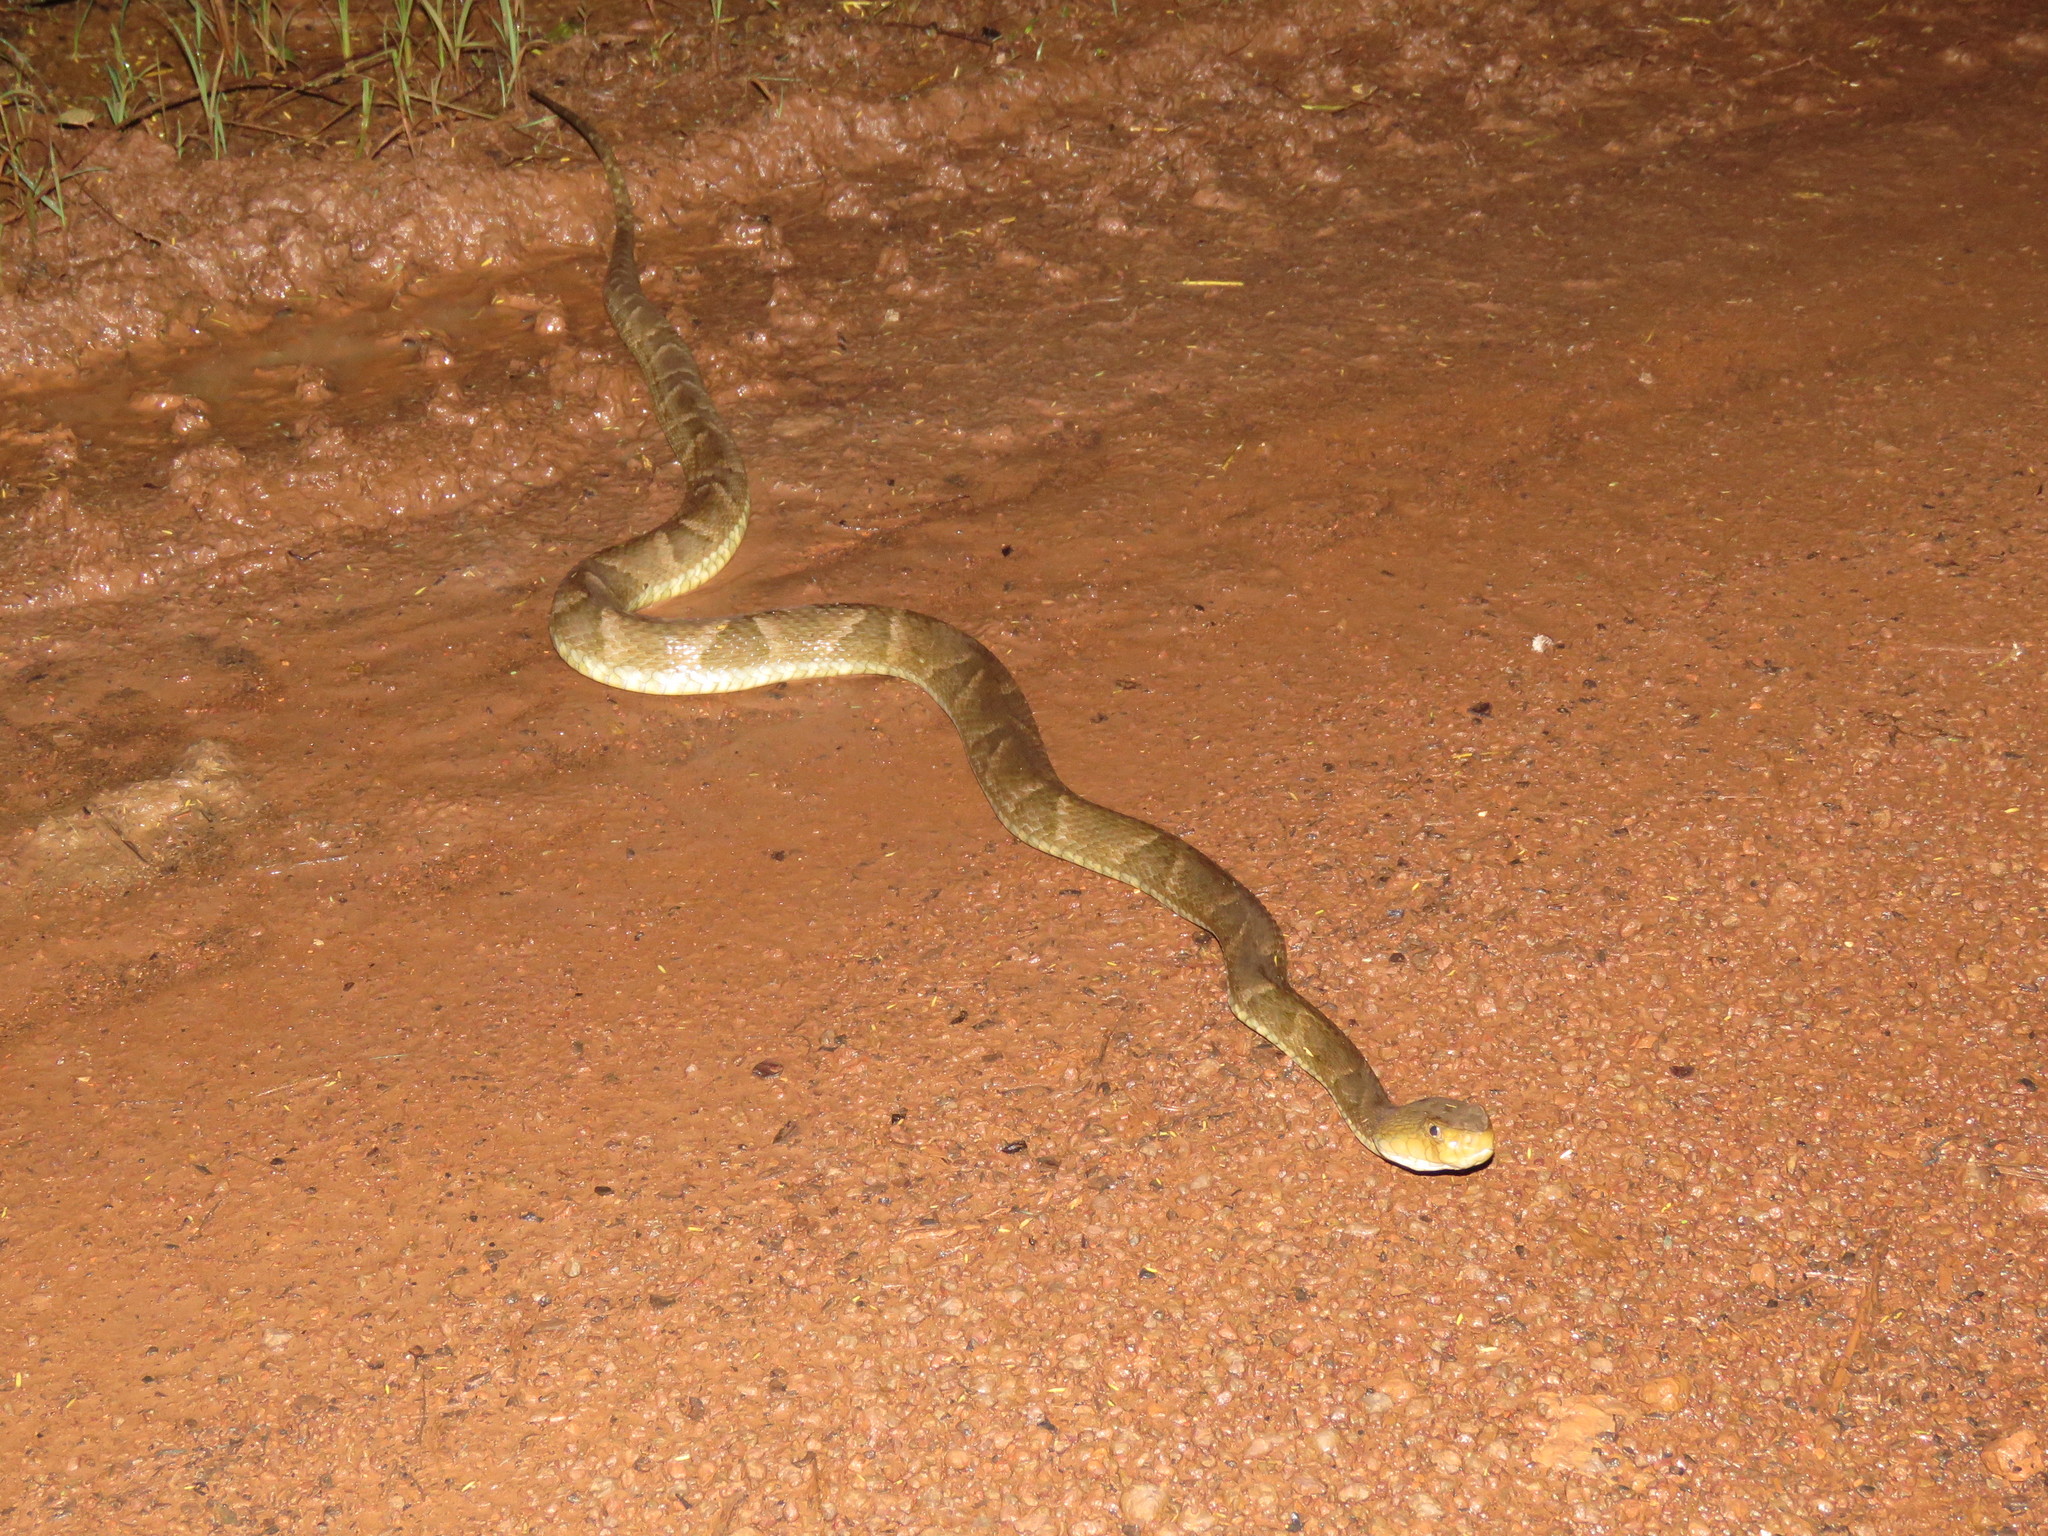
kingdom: Animalia
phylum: Chordata
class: Squamata
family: Viperidae
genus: Bothrops
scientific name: Bothrops atrox
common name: Common lancehead
